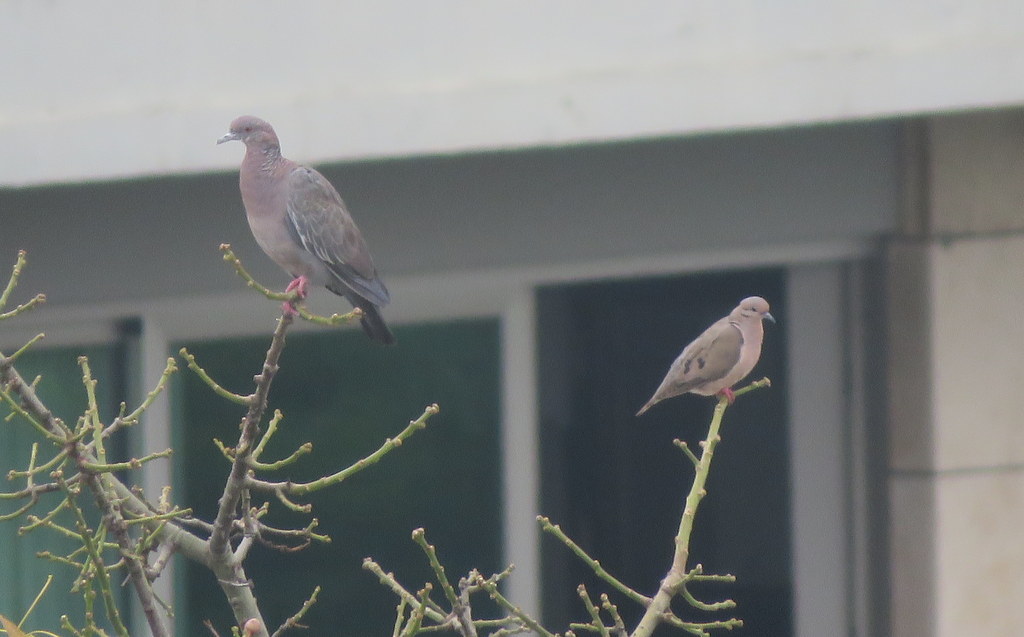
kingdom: Animalia
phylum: Chordata
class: Aves
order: Columbiformes
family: Columbidae
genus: Patagioenas
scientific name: Patagioenas picazuro
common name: Picazuro pigeon
